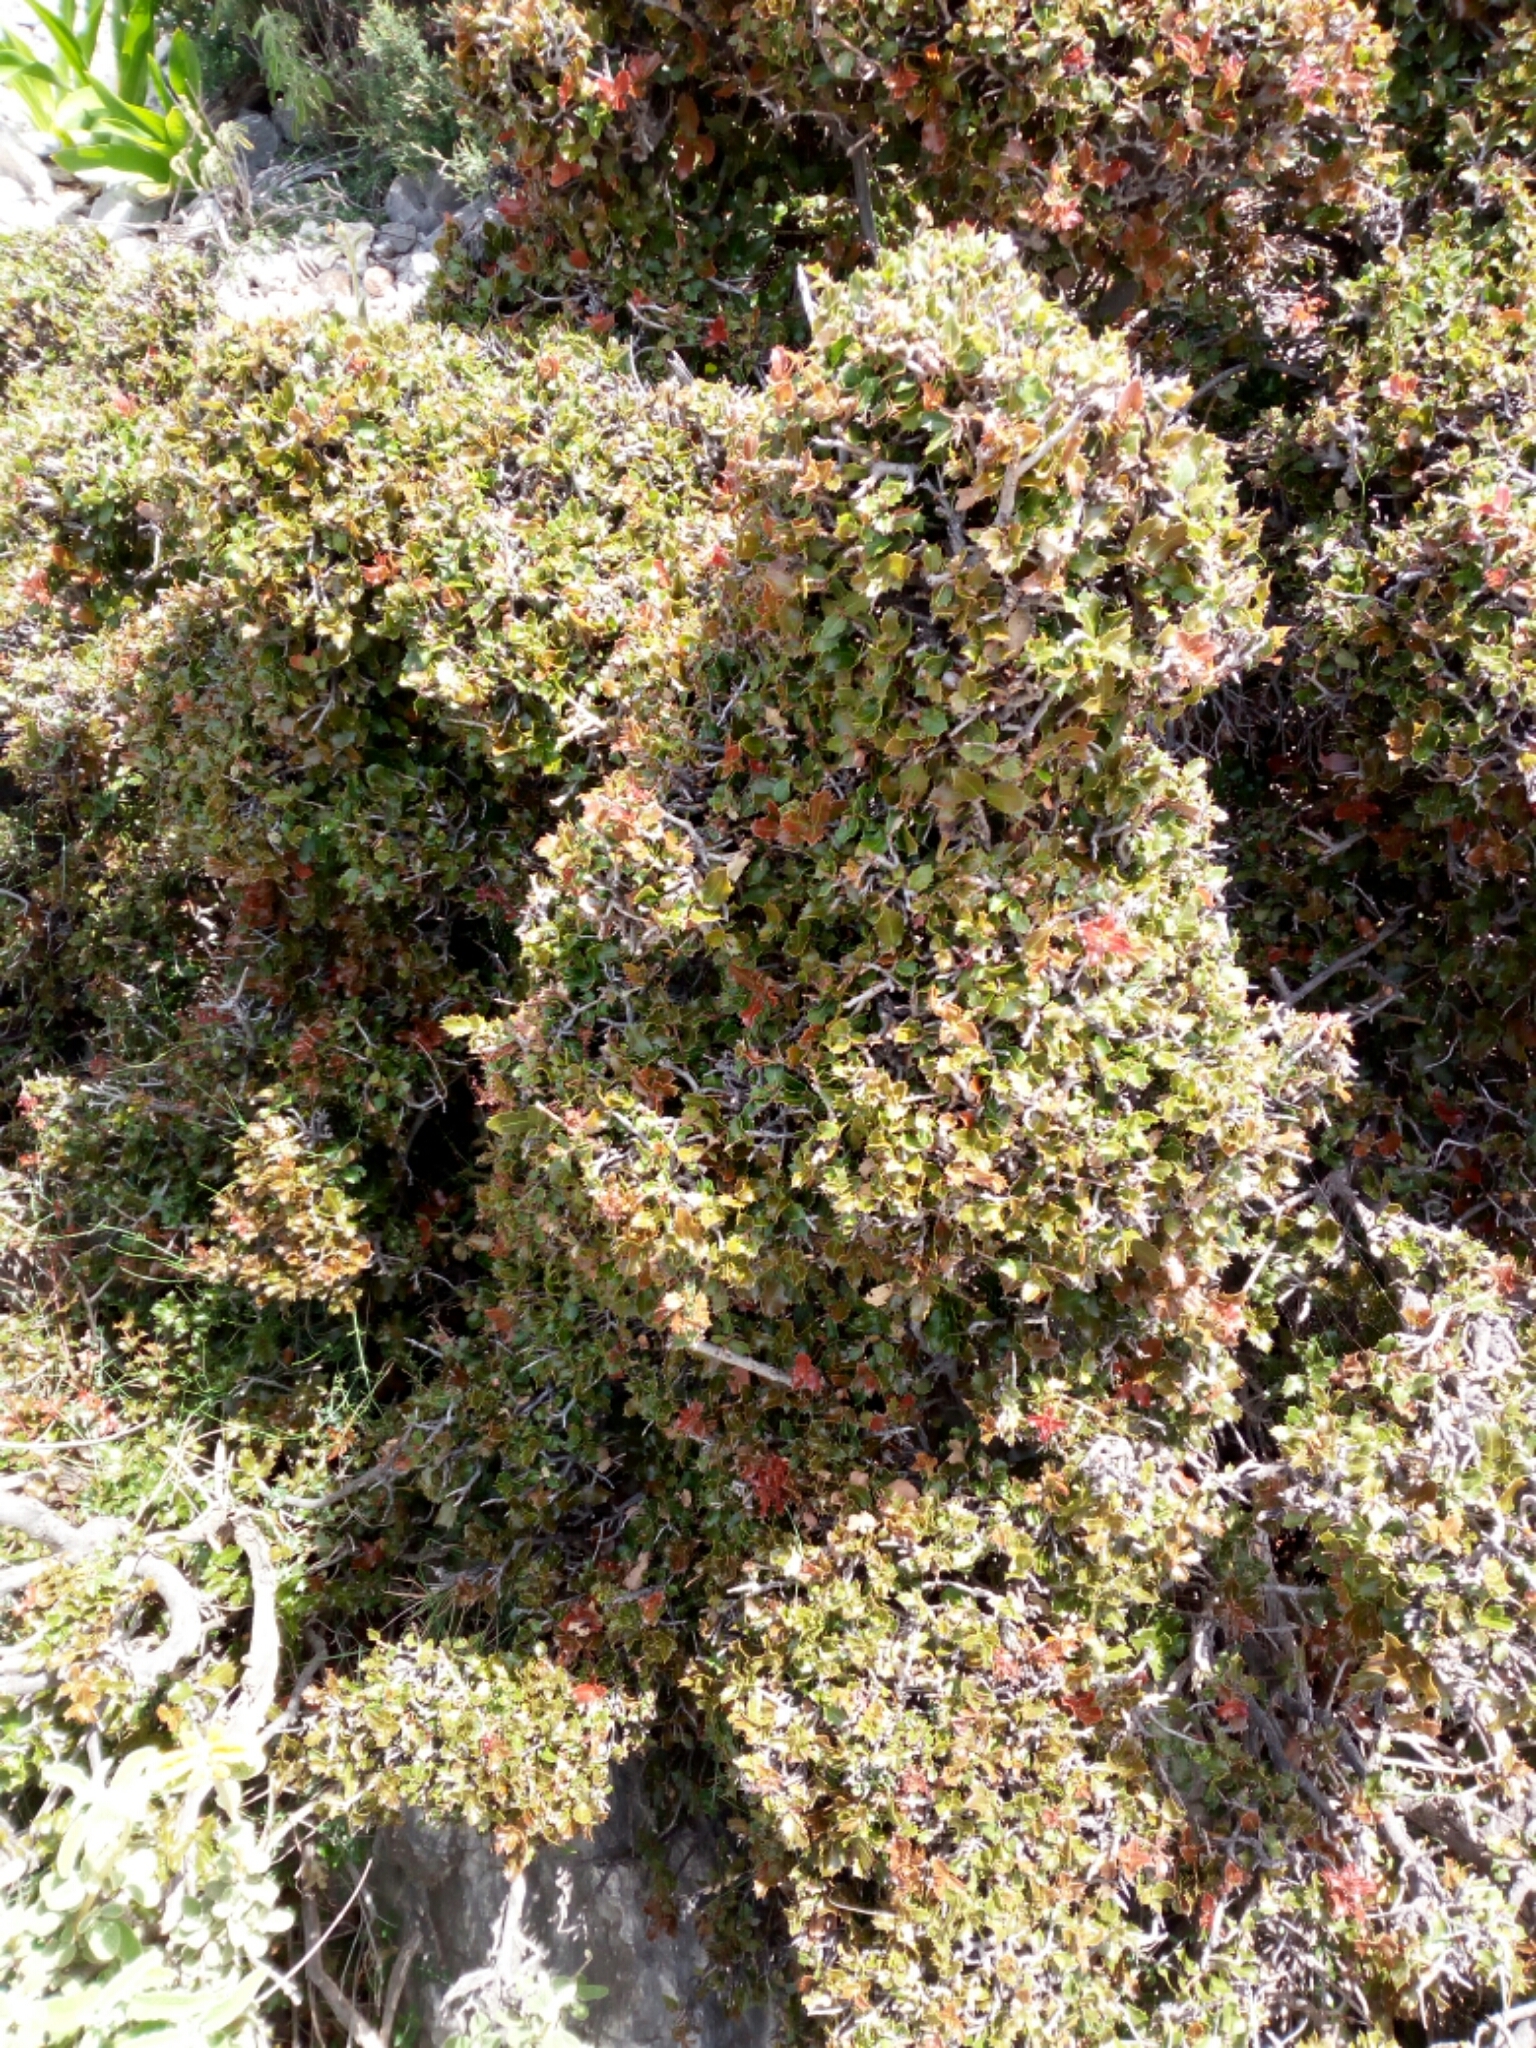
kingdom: Plantae
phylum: Tracheophyta
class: Magnoliopsida
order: Fagales
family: Fagaceae
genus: Quercus
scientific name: Quercus coccifera
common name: Kermes oak
